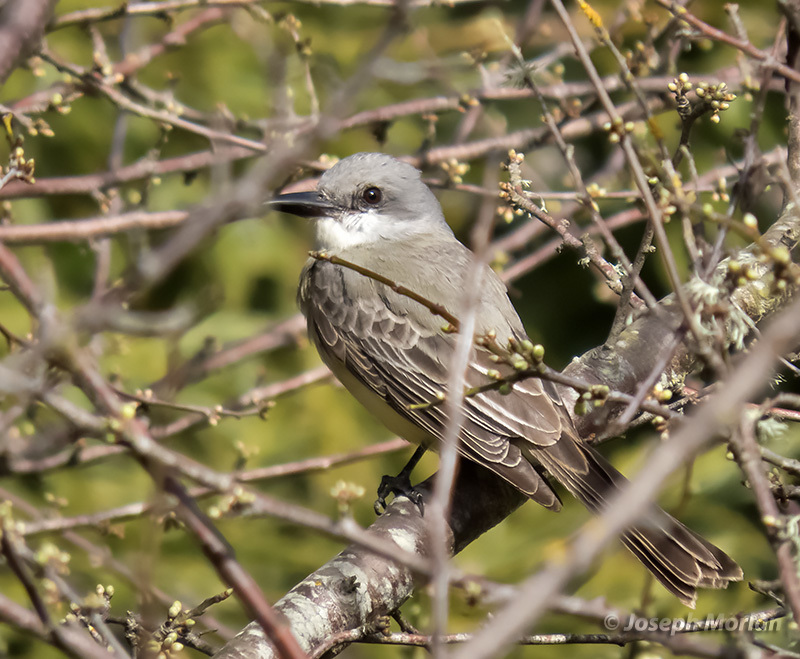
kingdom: Animalia
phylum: Chordata
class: Aves
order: Passeriformes
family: Tyrannidae
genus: Tyrannus
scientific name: Tyrannus melancholicus
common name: Tropical kingbird
